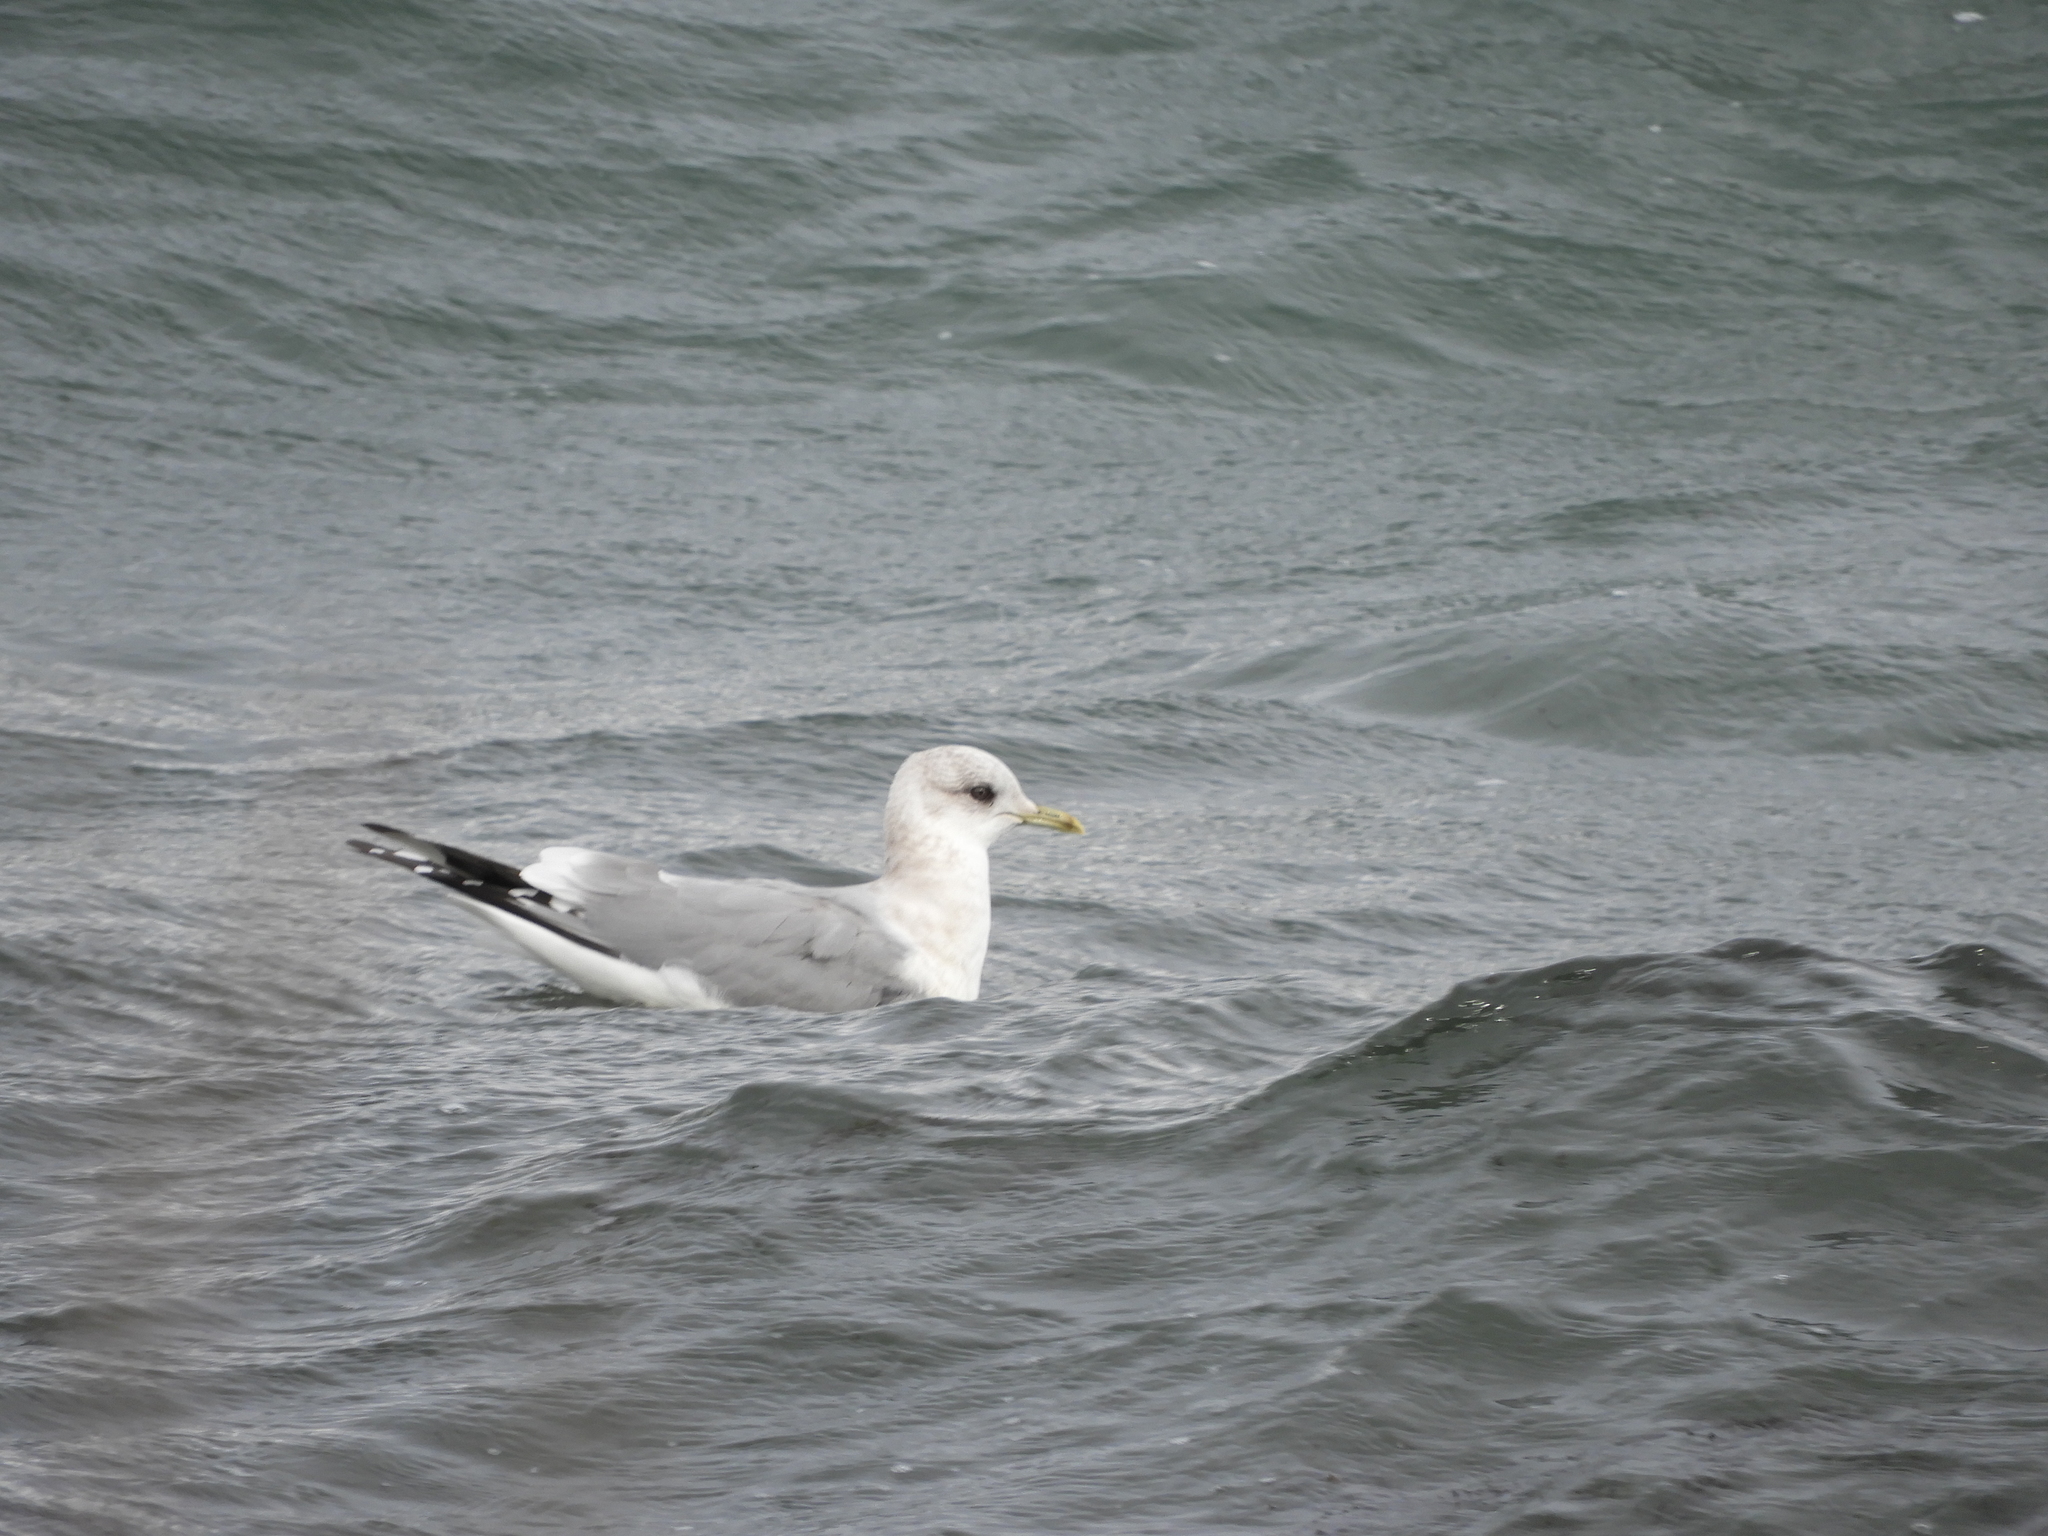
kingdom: Animalia
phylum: Chordata
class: Aves
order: Charadriiformes
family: Laridae
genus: Larus
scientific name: Larus brachyrhynchus
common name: Short-billed gull
